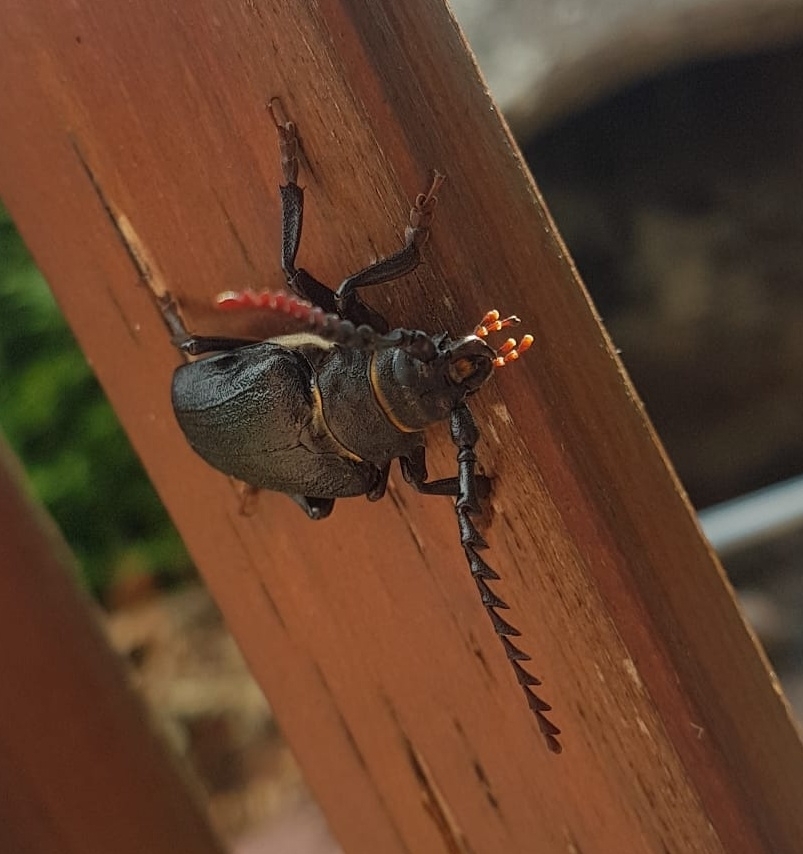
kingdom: Animalia
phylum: Arthropoda
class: Insecta
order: Coleoptera
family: Cerambycidae
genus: Prionus
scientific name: Prionus coriarius
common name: Tanner beetle
